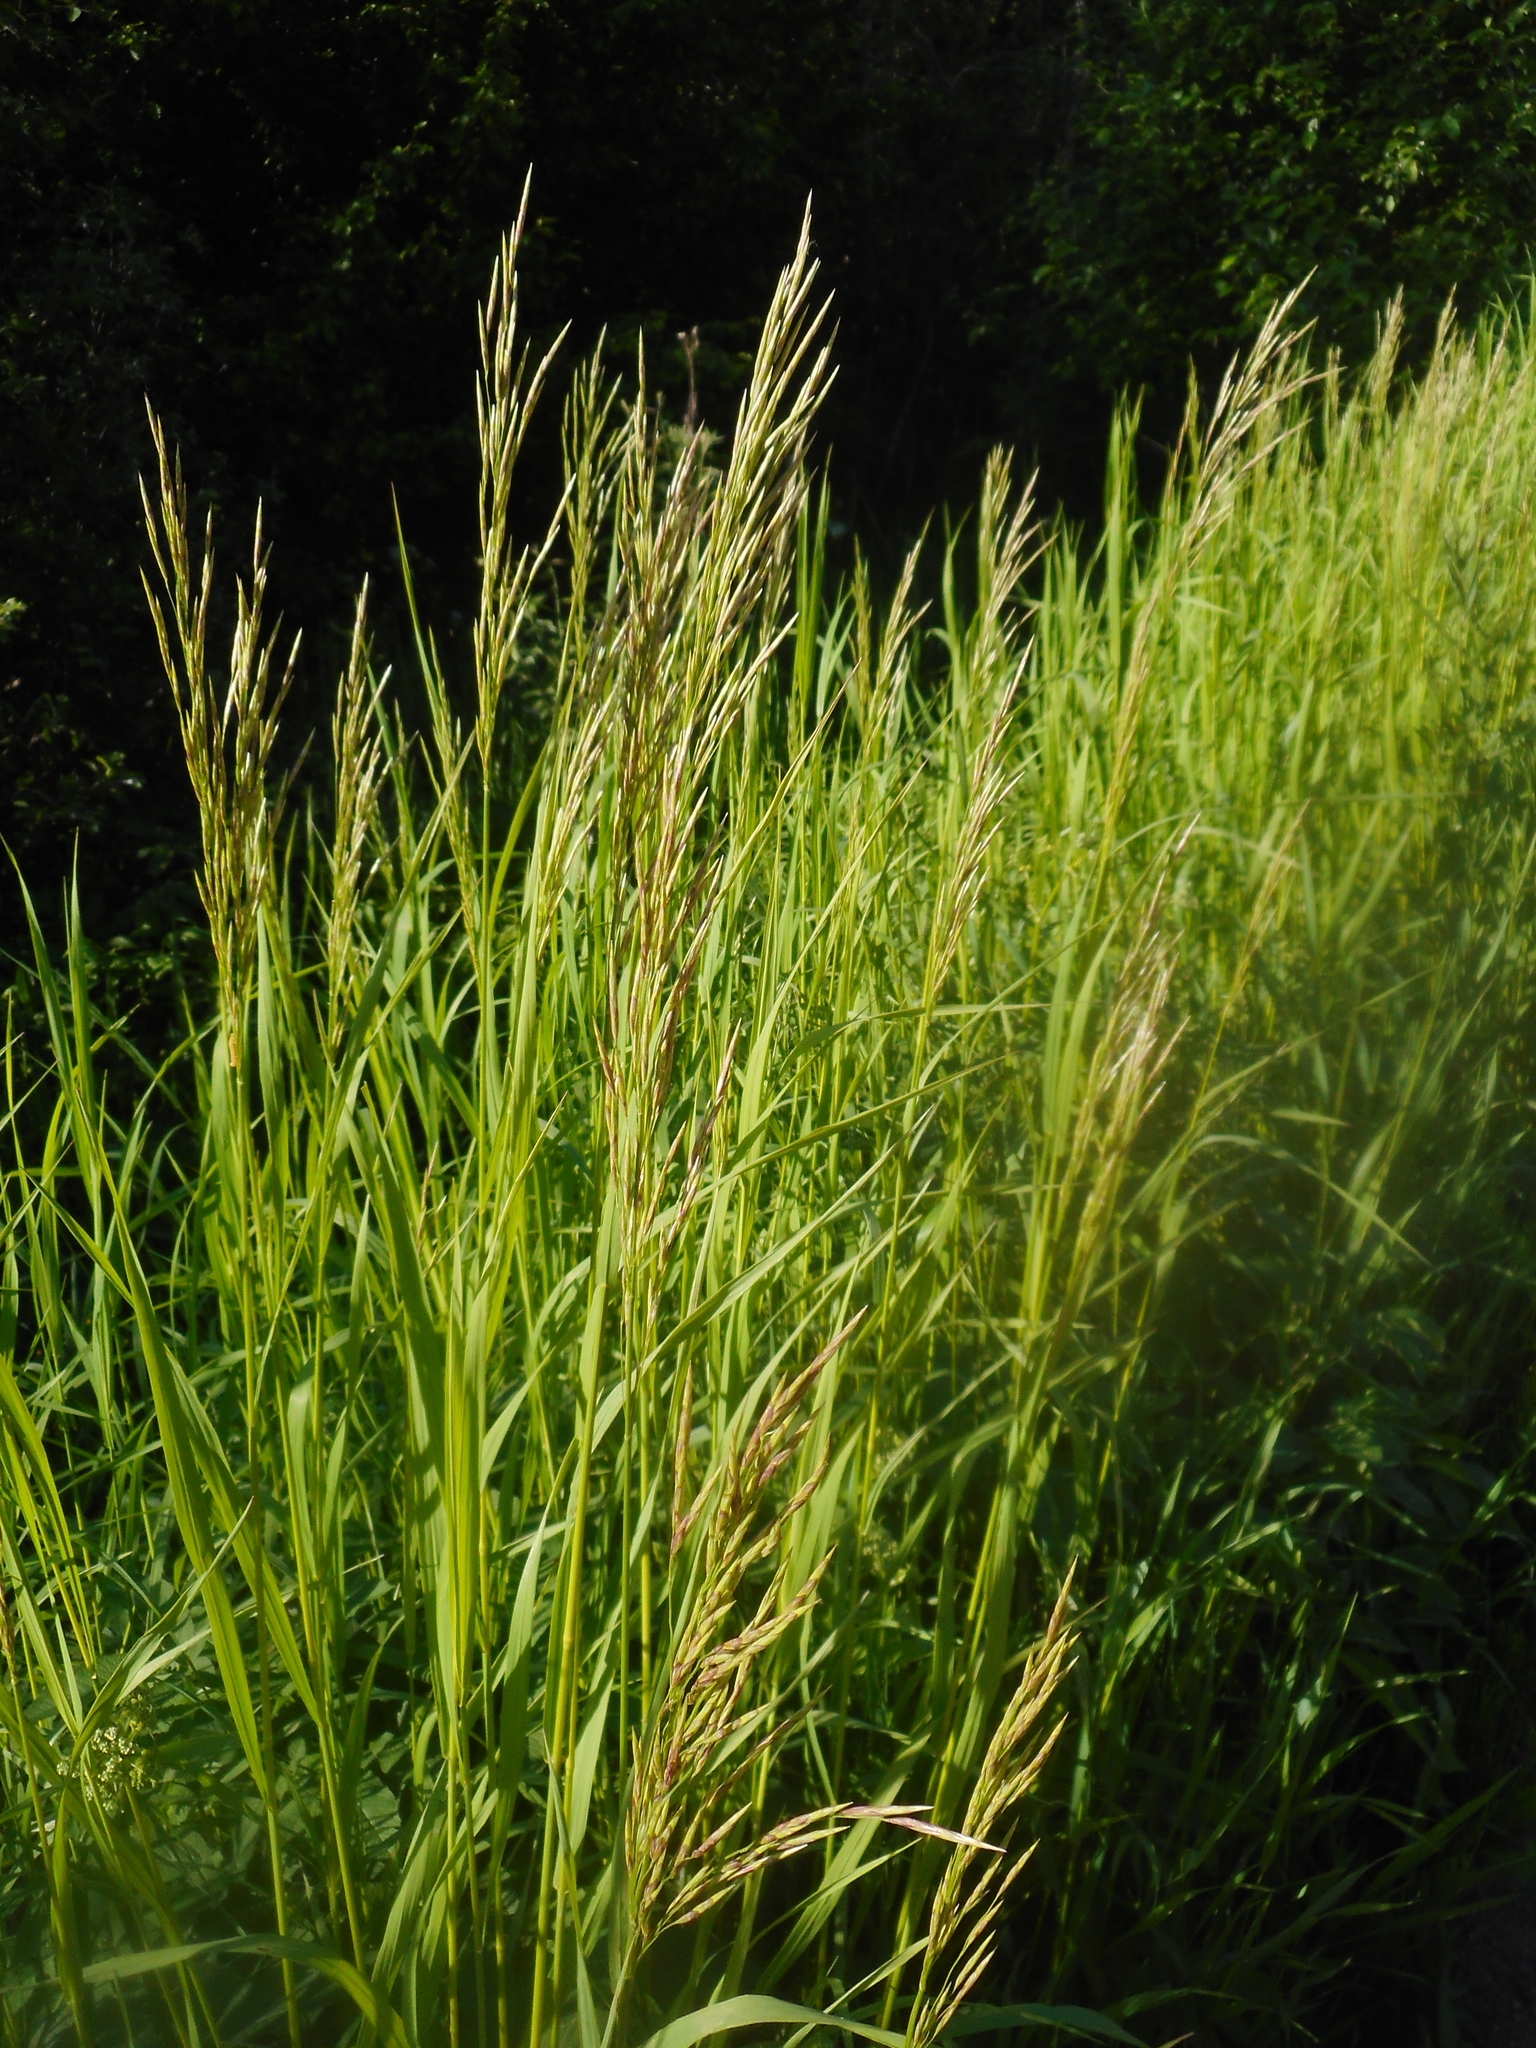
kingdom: Plantae
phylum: Tracheophyta
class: Liliopsida
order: Poales
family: Poaceae
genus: Bromus
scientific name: Bromus inermis
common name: Smooth brome
